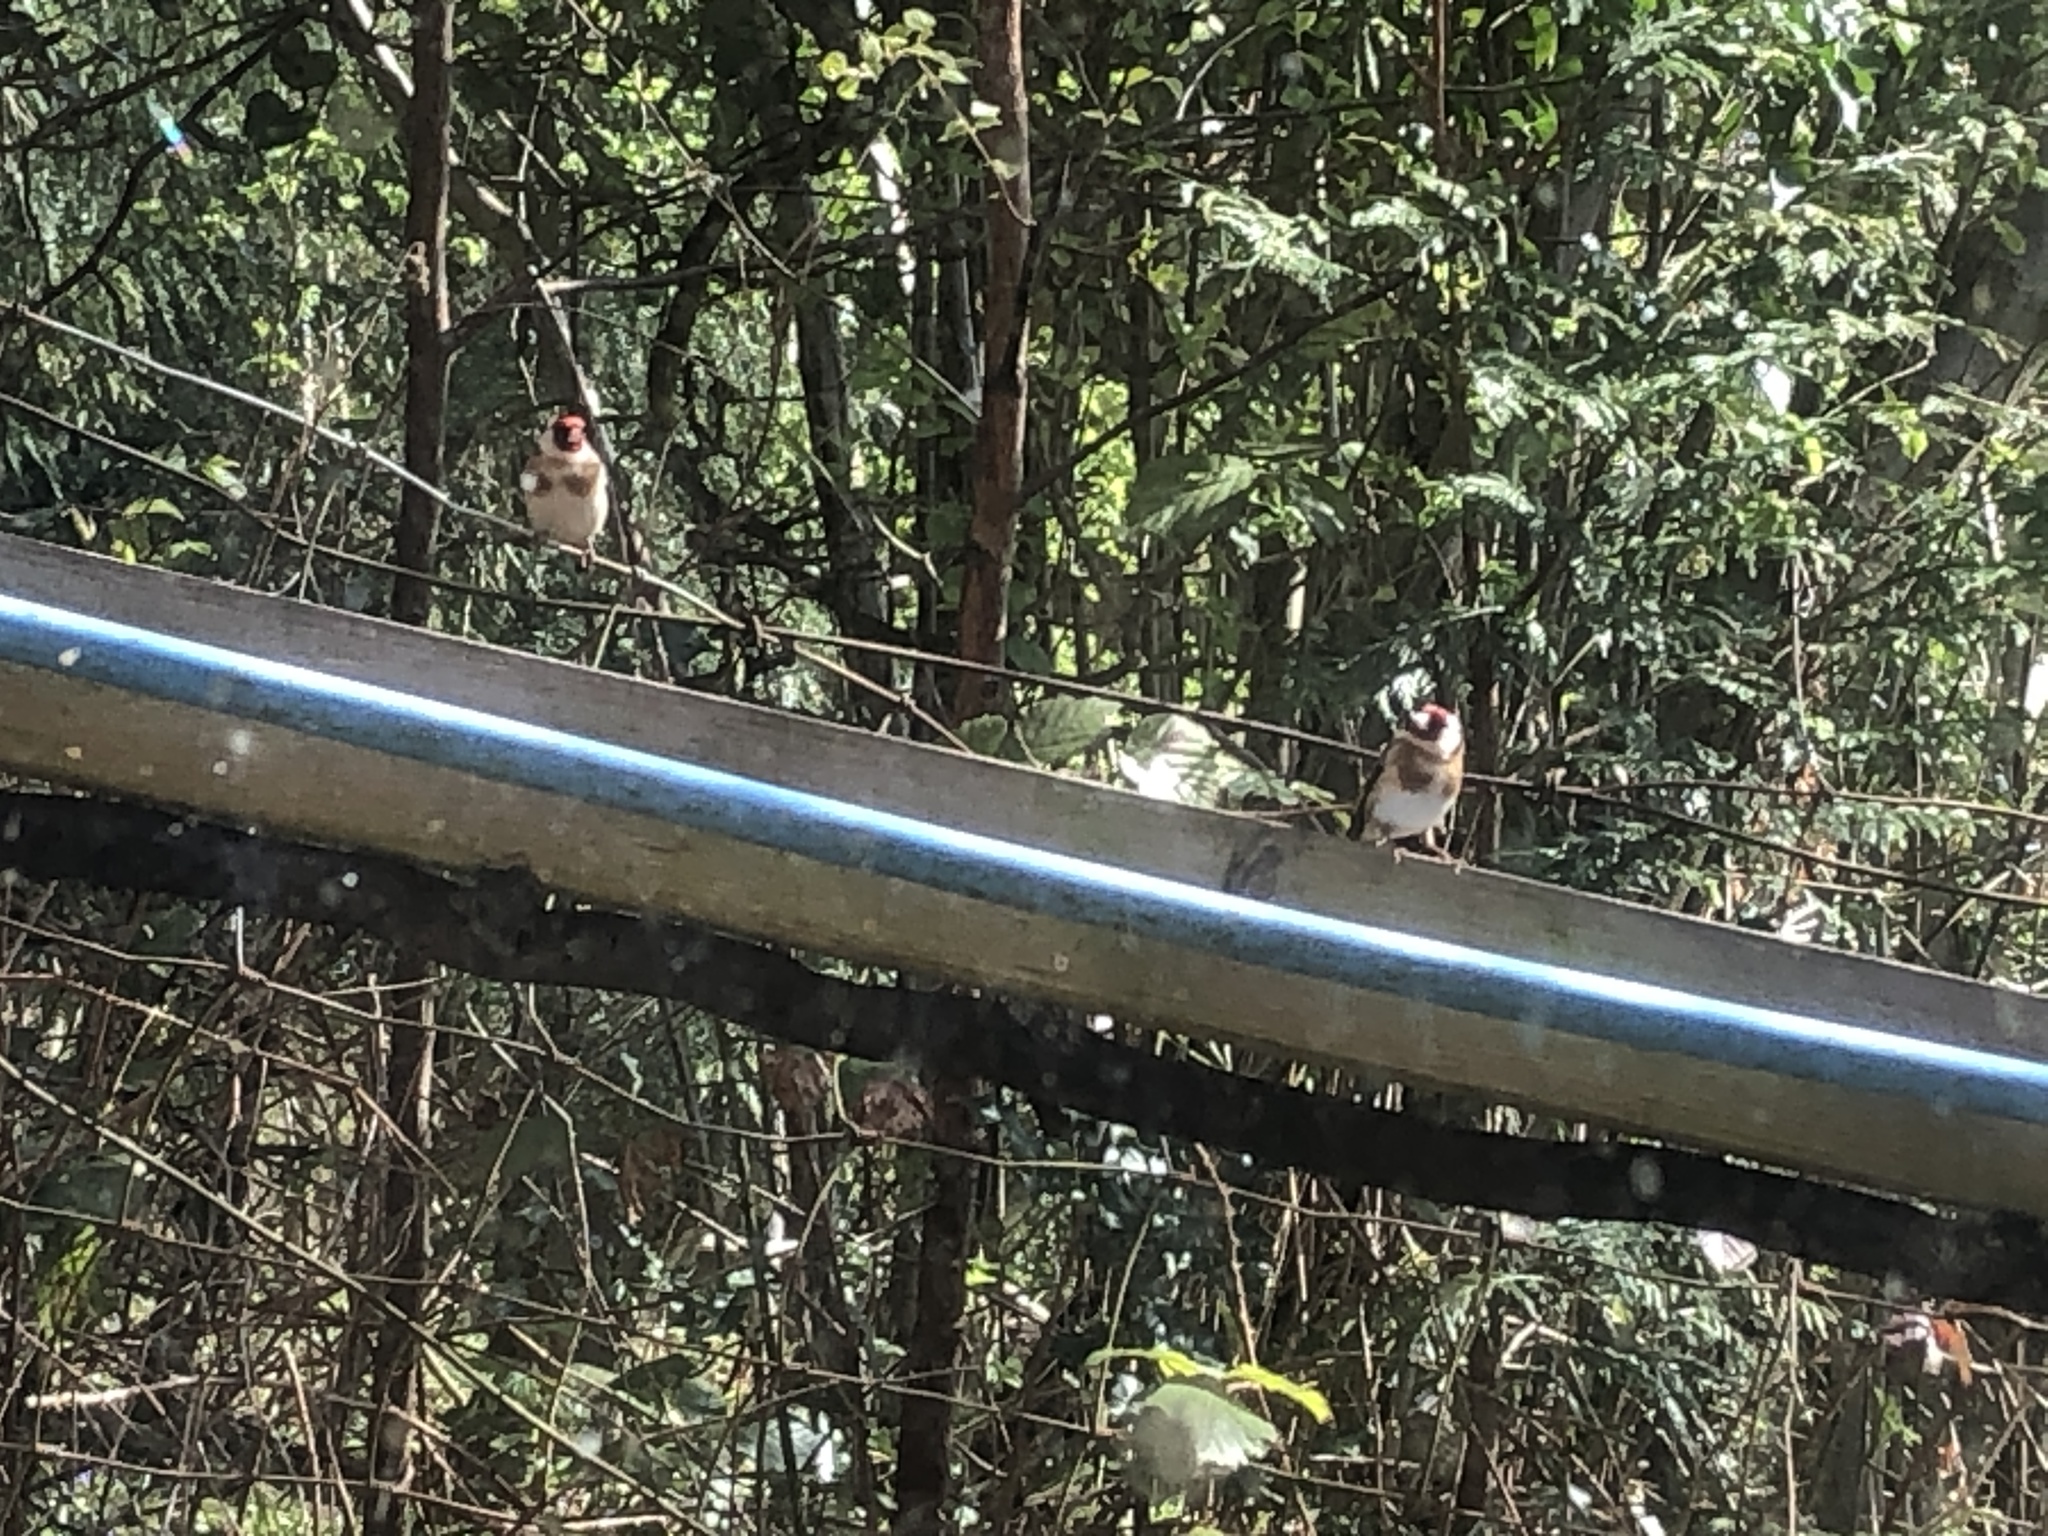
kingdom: Animalia
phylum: Chordata
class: Aves
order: Passeriformes
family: Fringillidae
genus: Carduelis
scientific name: Carduelis carduelis
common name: European goldfinch
